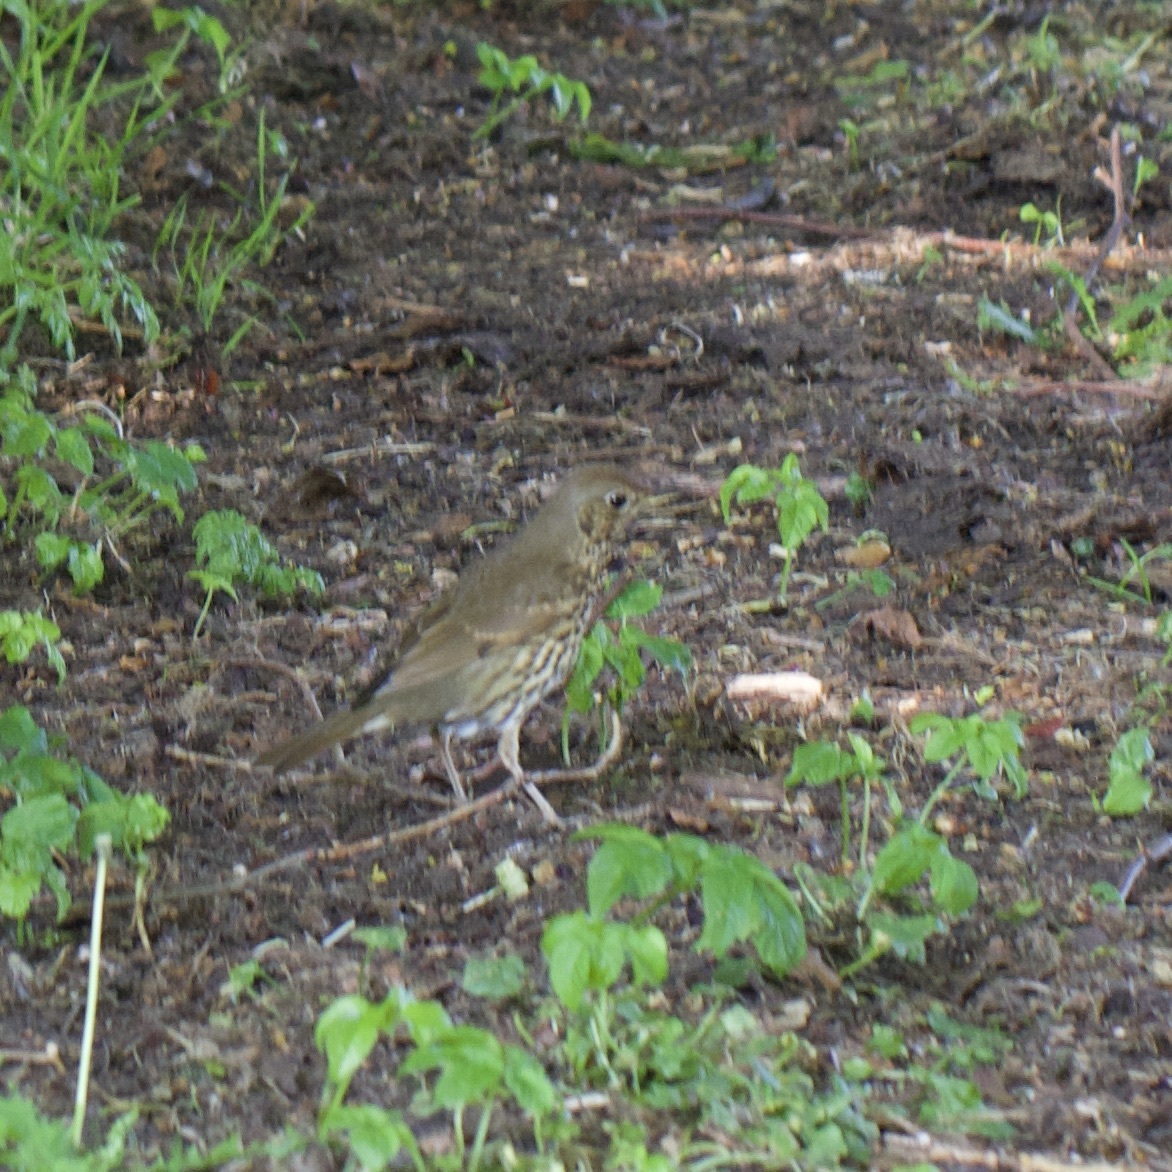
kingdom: Animalia
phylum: Chordata
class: Aves
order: Passeriformes
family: Turdidae
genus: Turdus
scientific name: Turdus philomelos
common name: Song thrush
